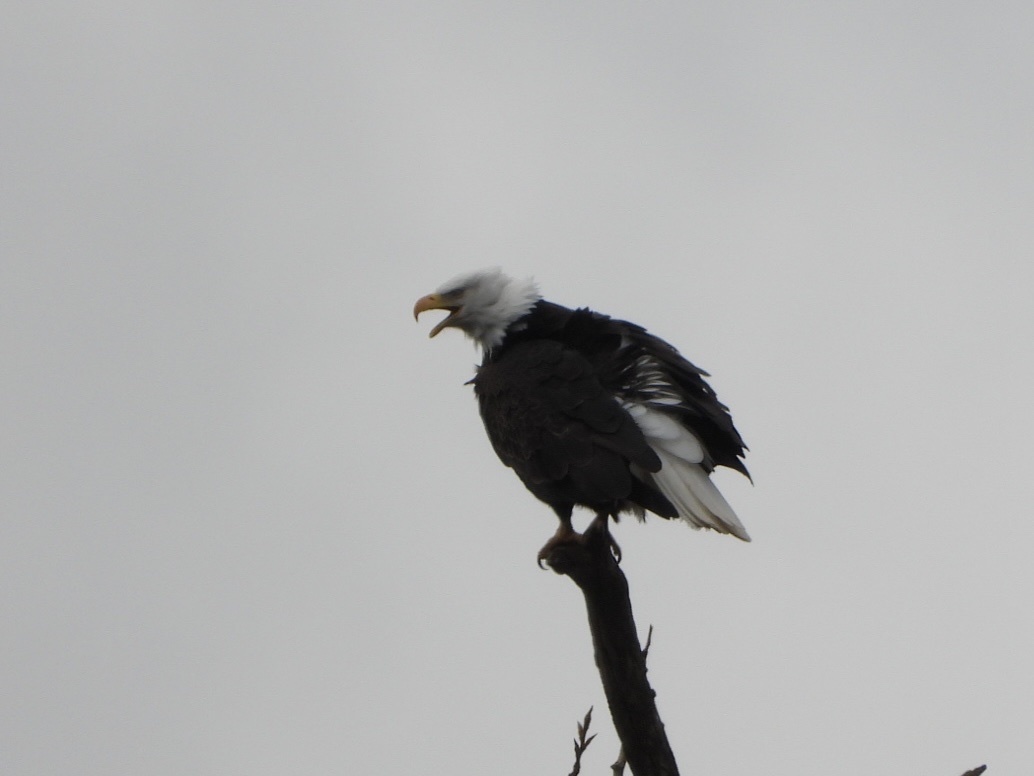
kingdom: Animalia
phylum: Chordata
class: Aves
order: Accipitriformes
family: Accipitridae
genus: Haliaeetus
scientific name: Haliaeetus leucocephalus
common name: Bald eagle
